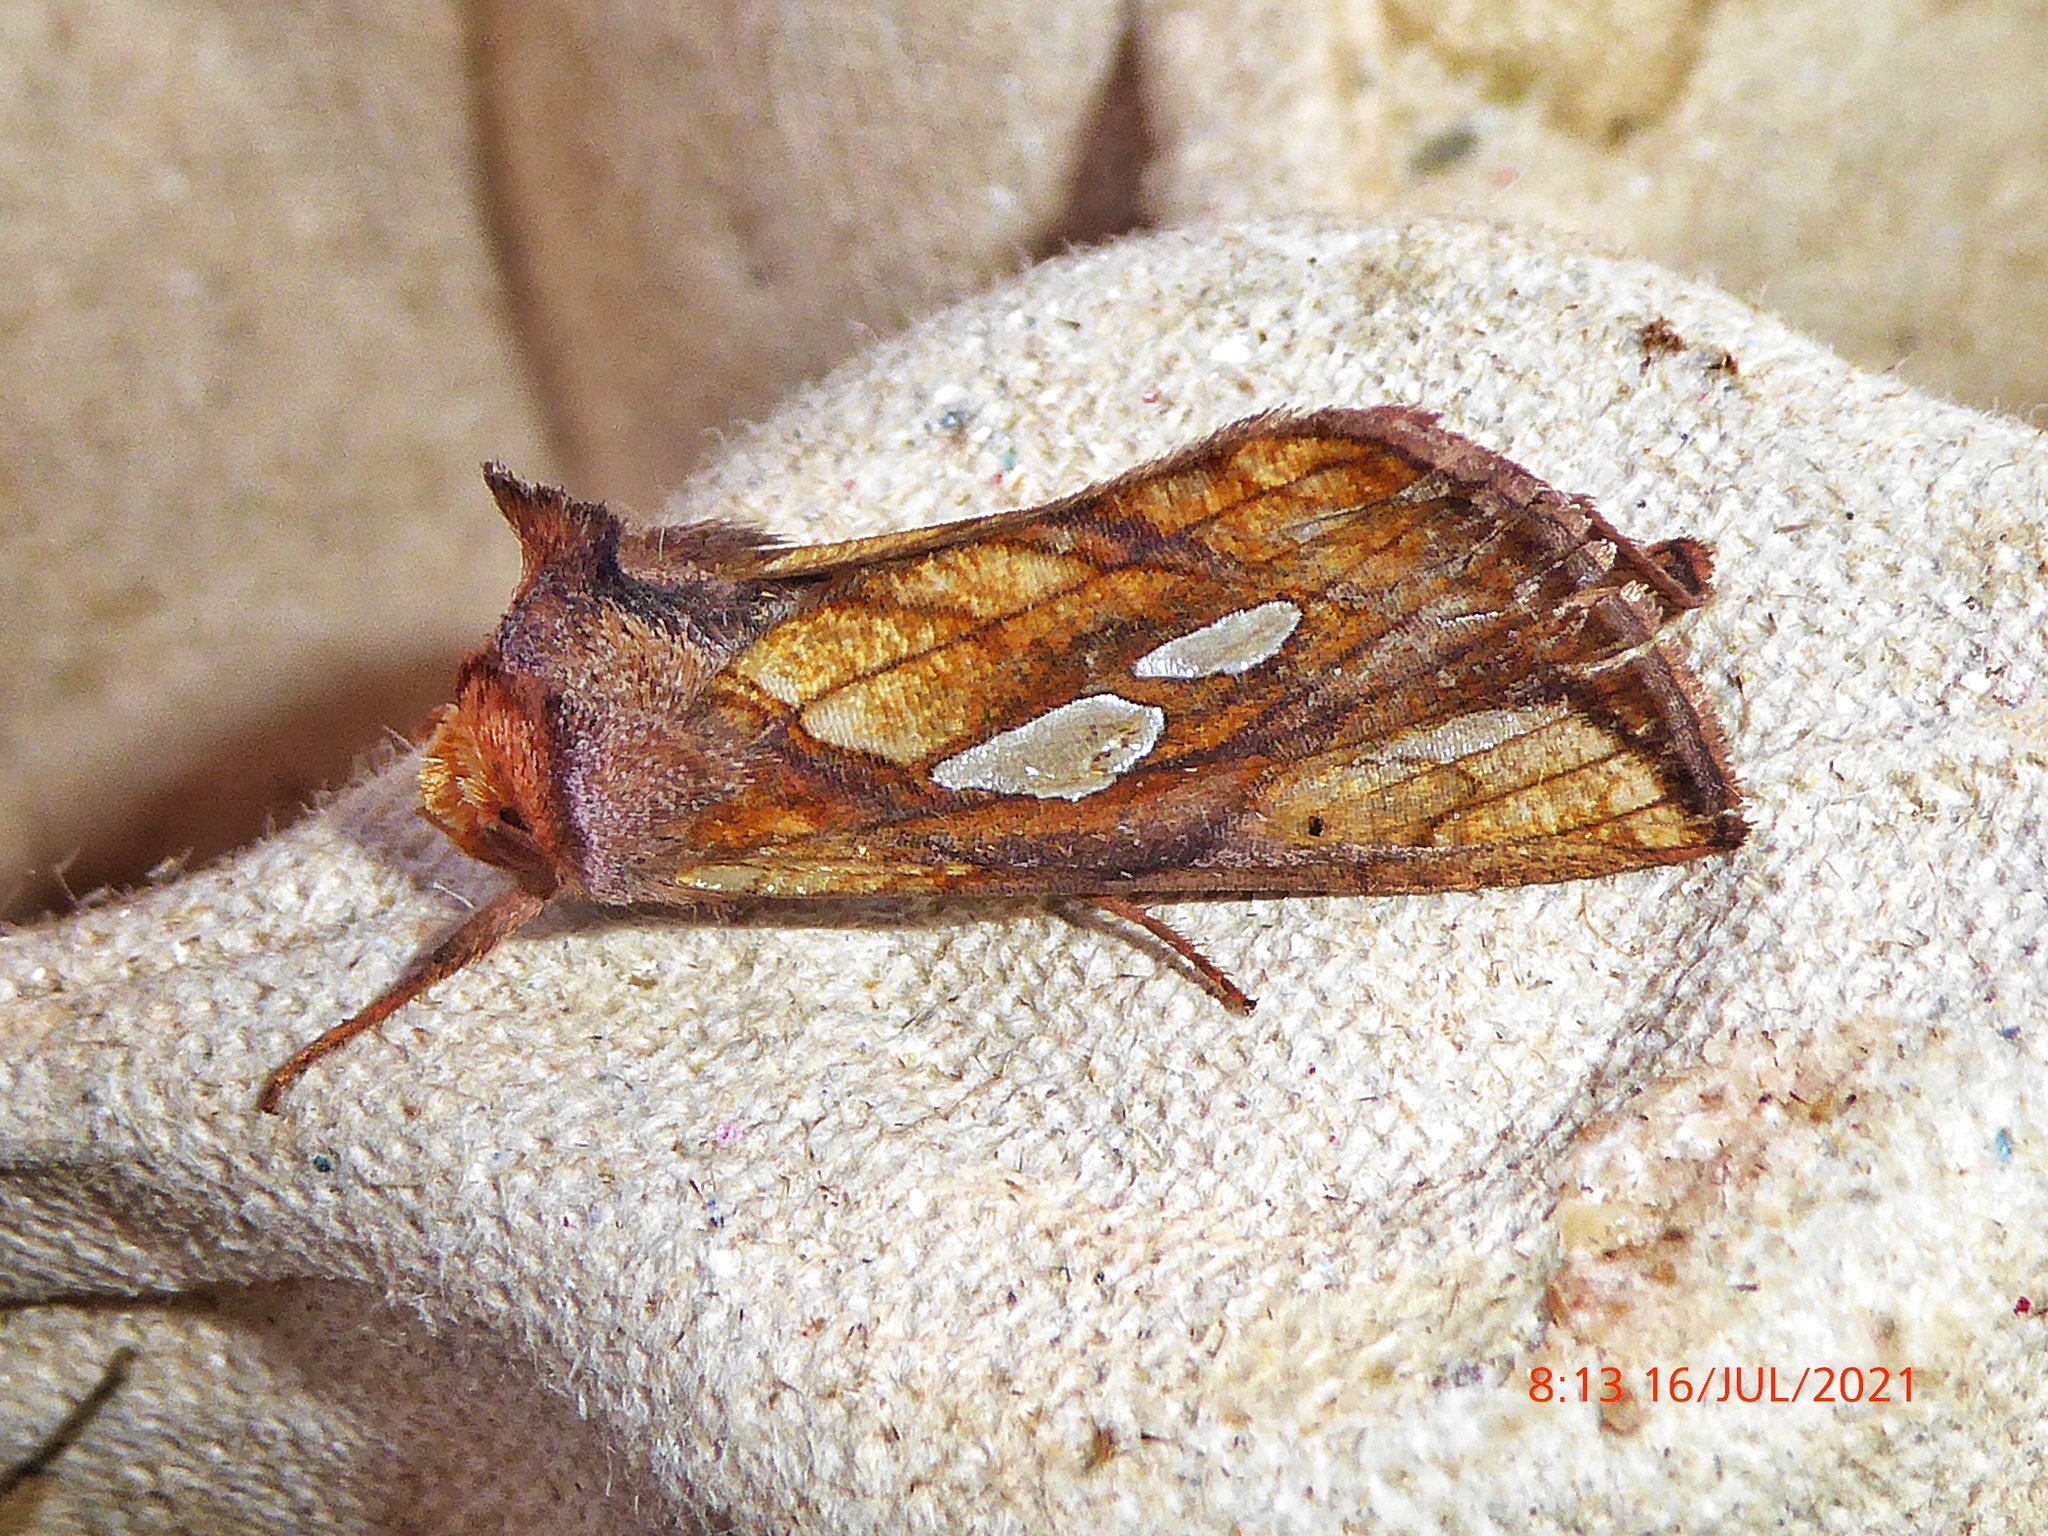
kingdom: Animalia
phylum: Arthropoda
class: Insecta
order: Lepidoptera
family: Noctuidae
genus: Plusia
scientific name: Plusia festucae
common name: Gold spot
